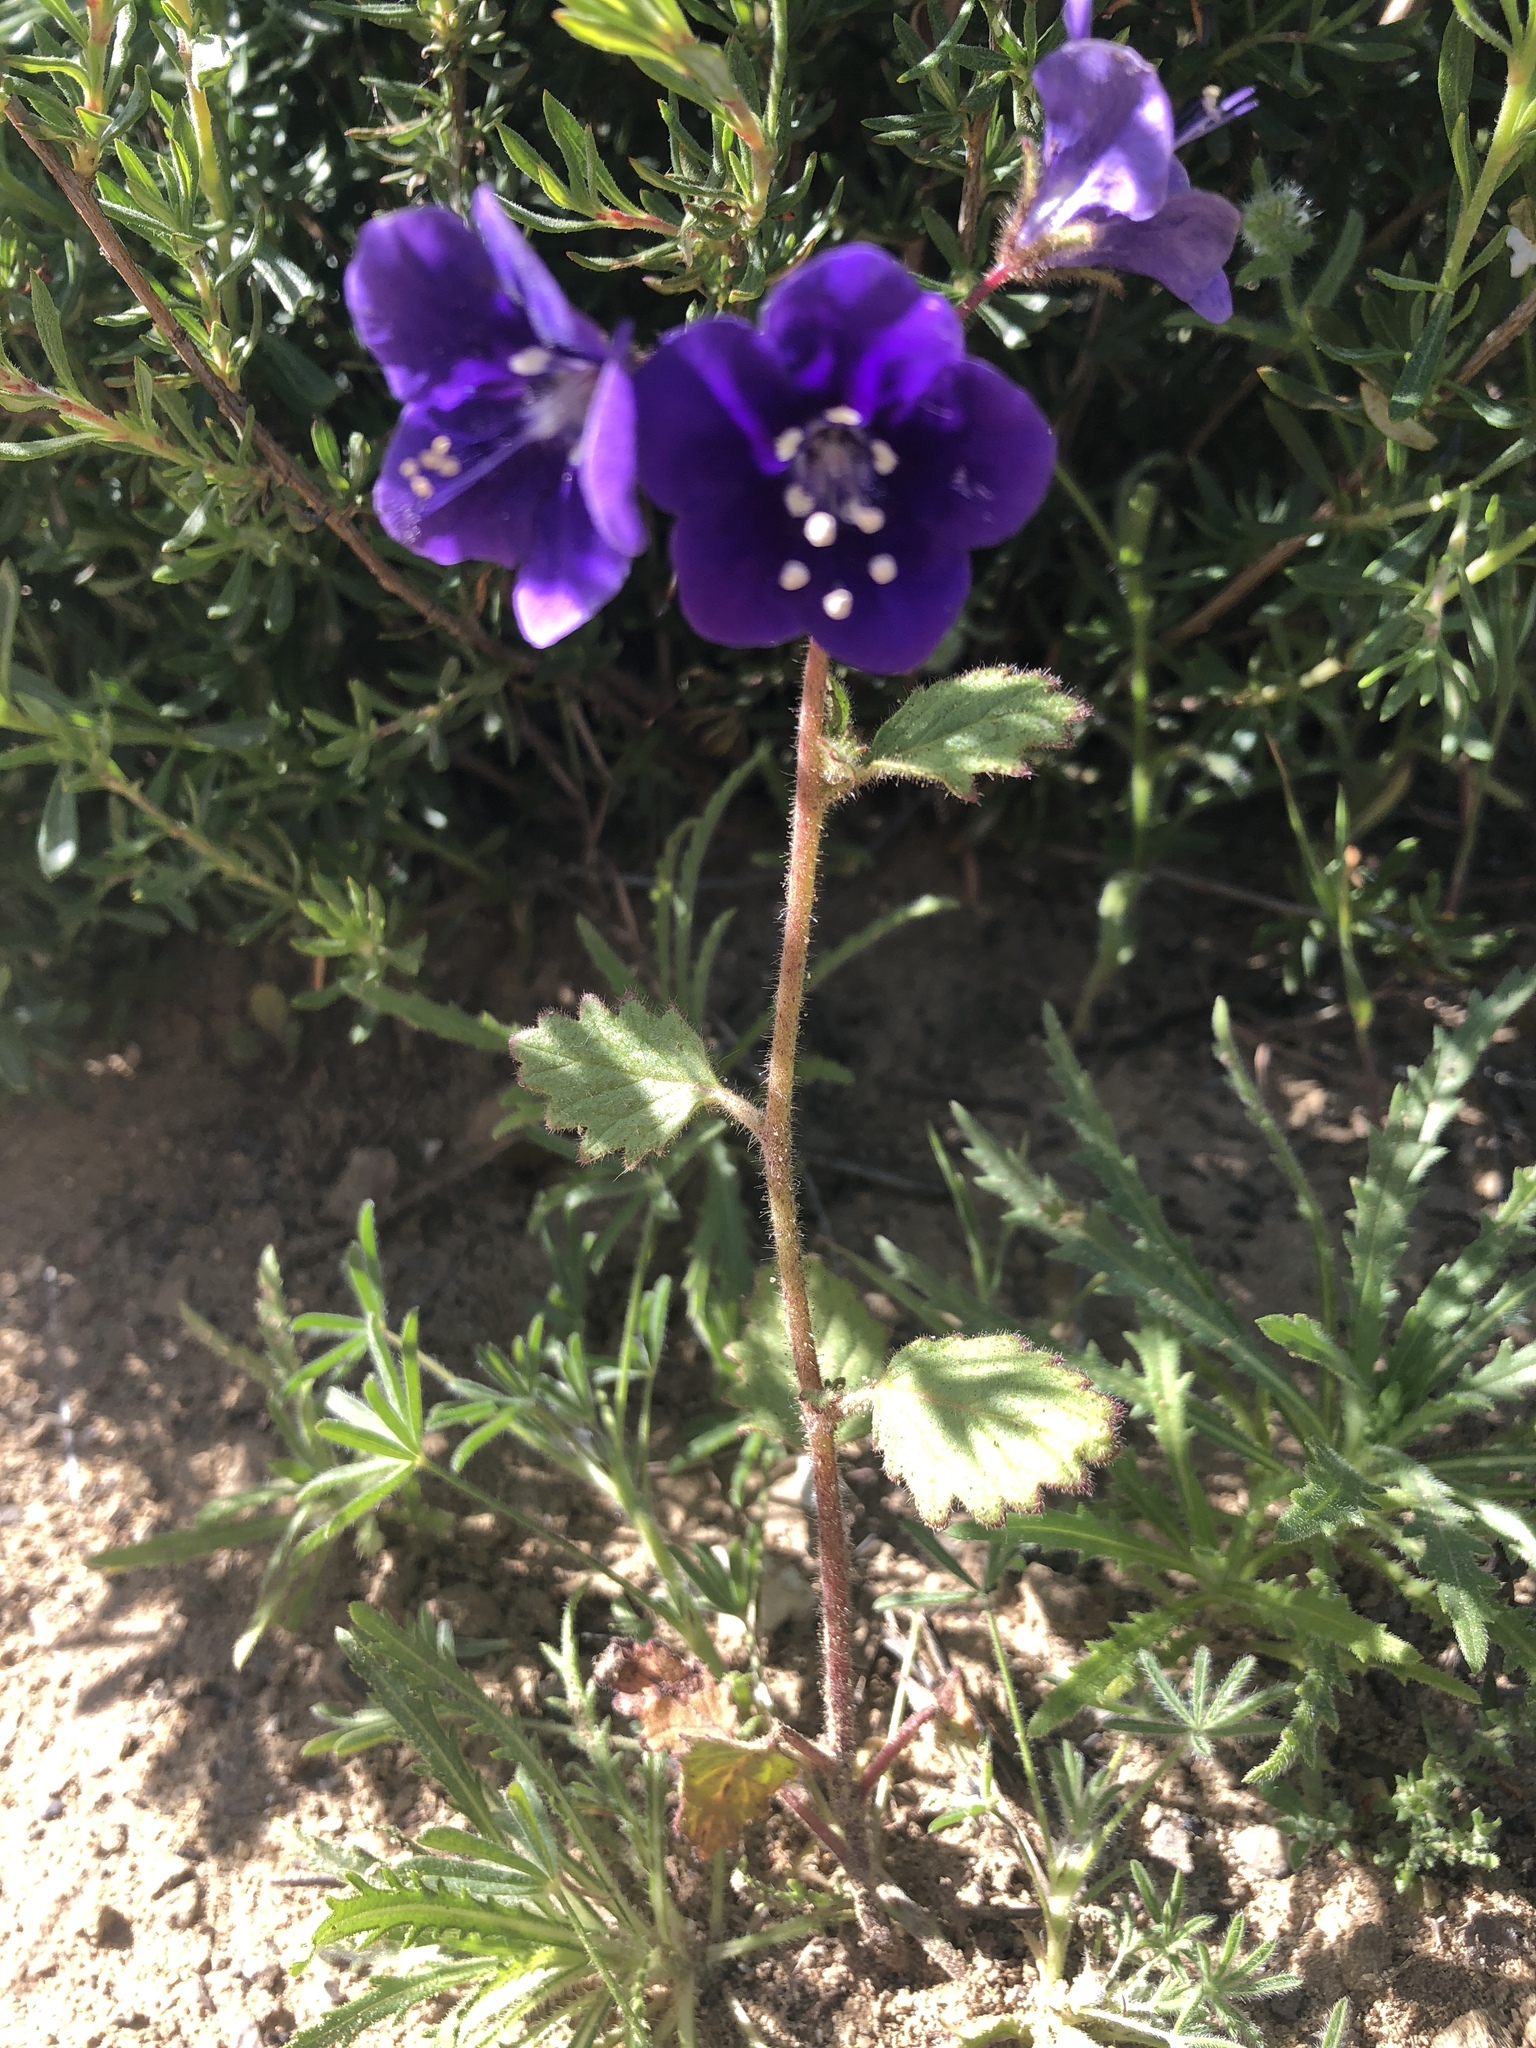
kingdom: Plantae
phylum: Tracheophyta
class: Magnoliopsida
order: Boraginales
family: Hydrophyllaceae
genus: Phacelia
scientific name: Phacelia parryi
